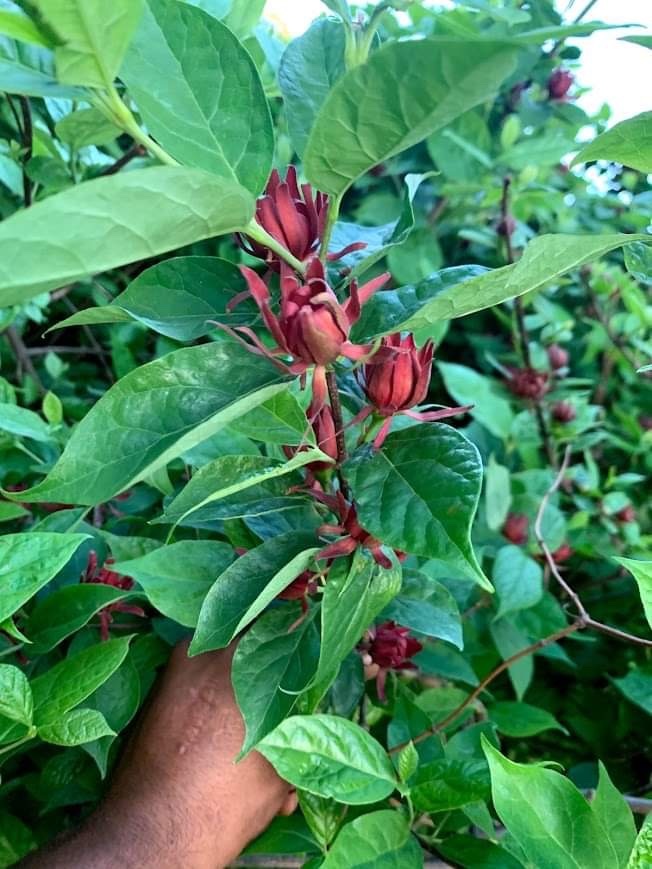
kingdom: Plantae
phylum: Tracheophyta
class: Magnoliopsida
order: Laurales
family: Calycanthaceae
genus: Calycanthus
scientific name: Calycanthus floridus
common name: Carolina-allspice
